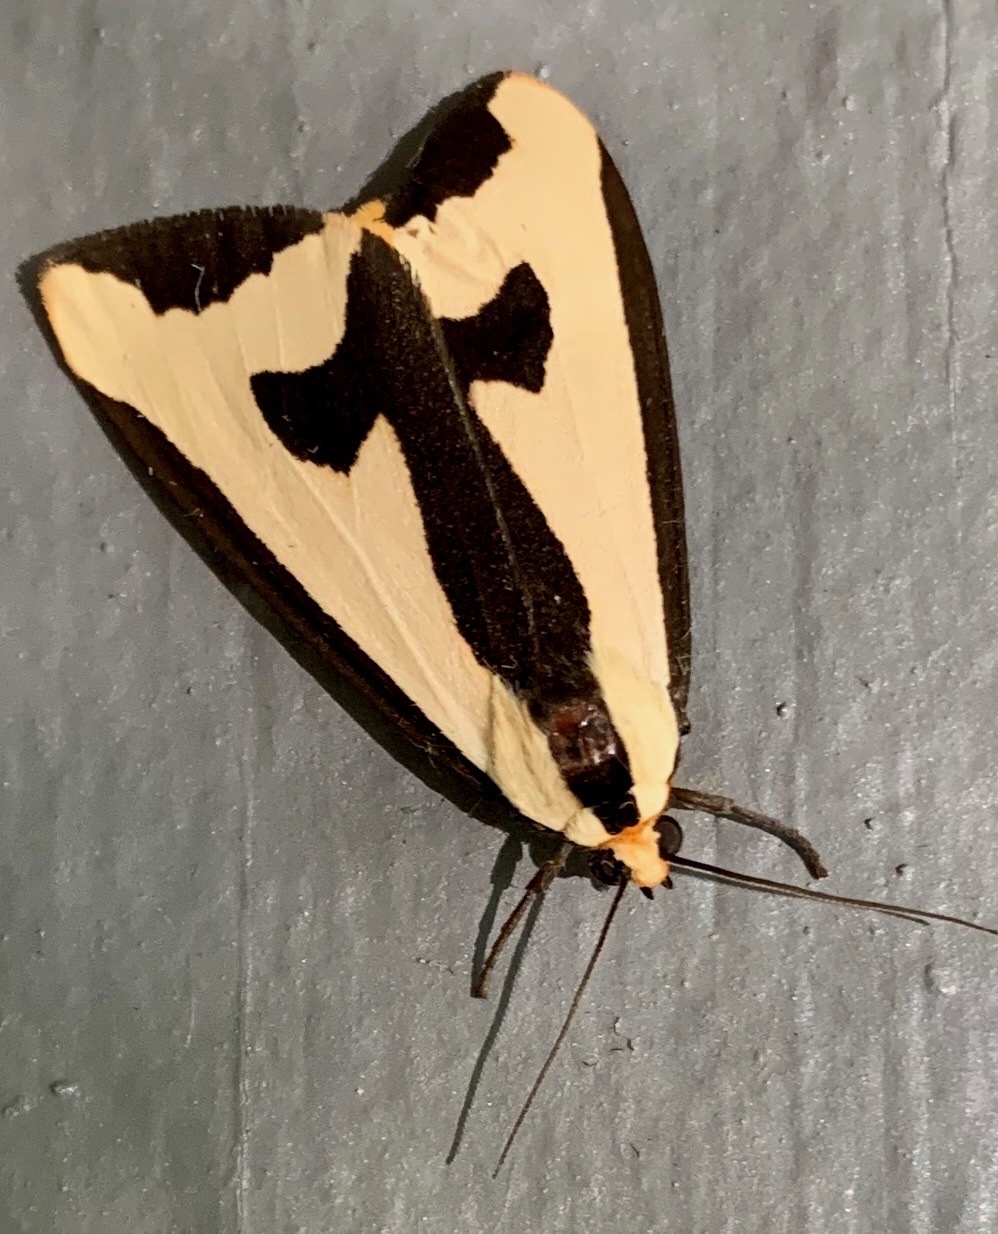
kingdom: Animalia
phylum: Arthropoda
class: Insecta
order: Lepidoptera
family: Erebidae
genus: Haploa
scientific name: Haploa clymene
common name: Clymene moth
